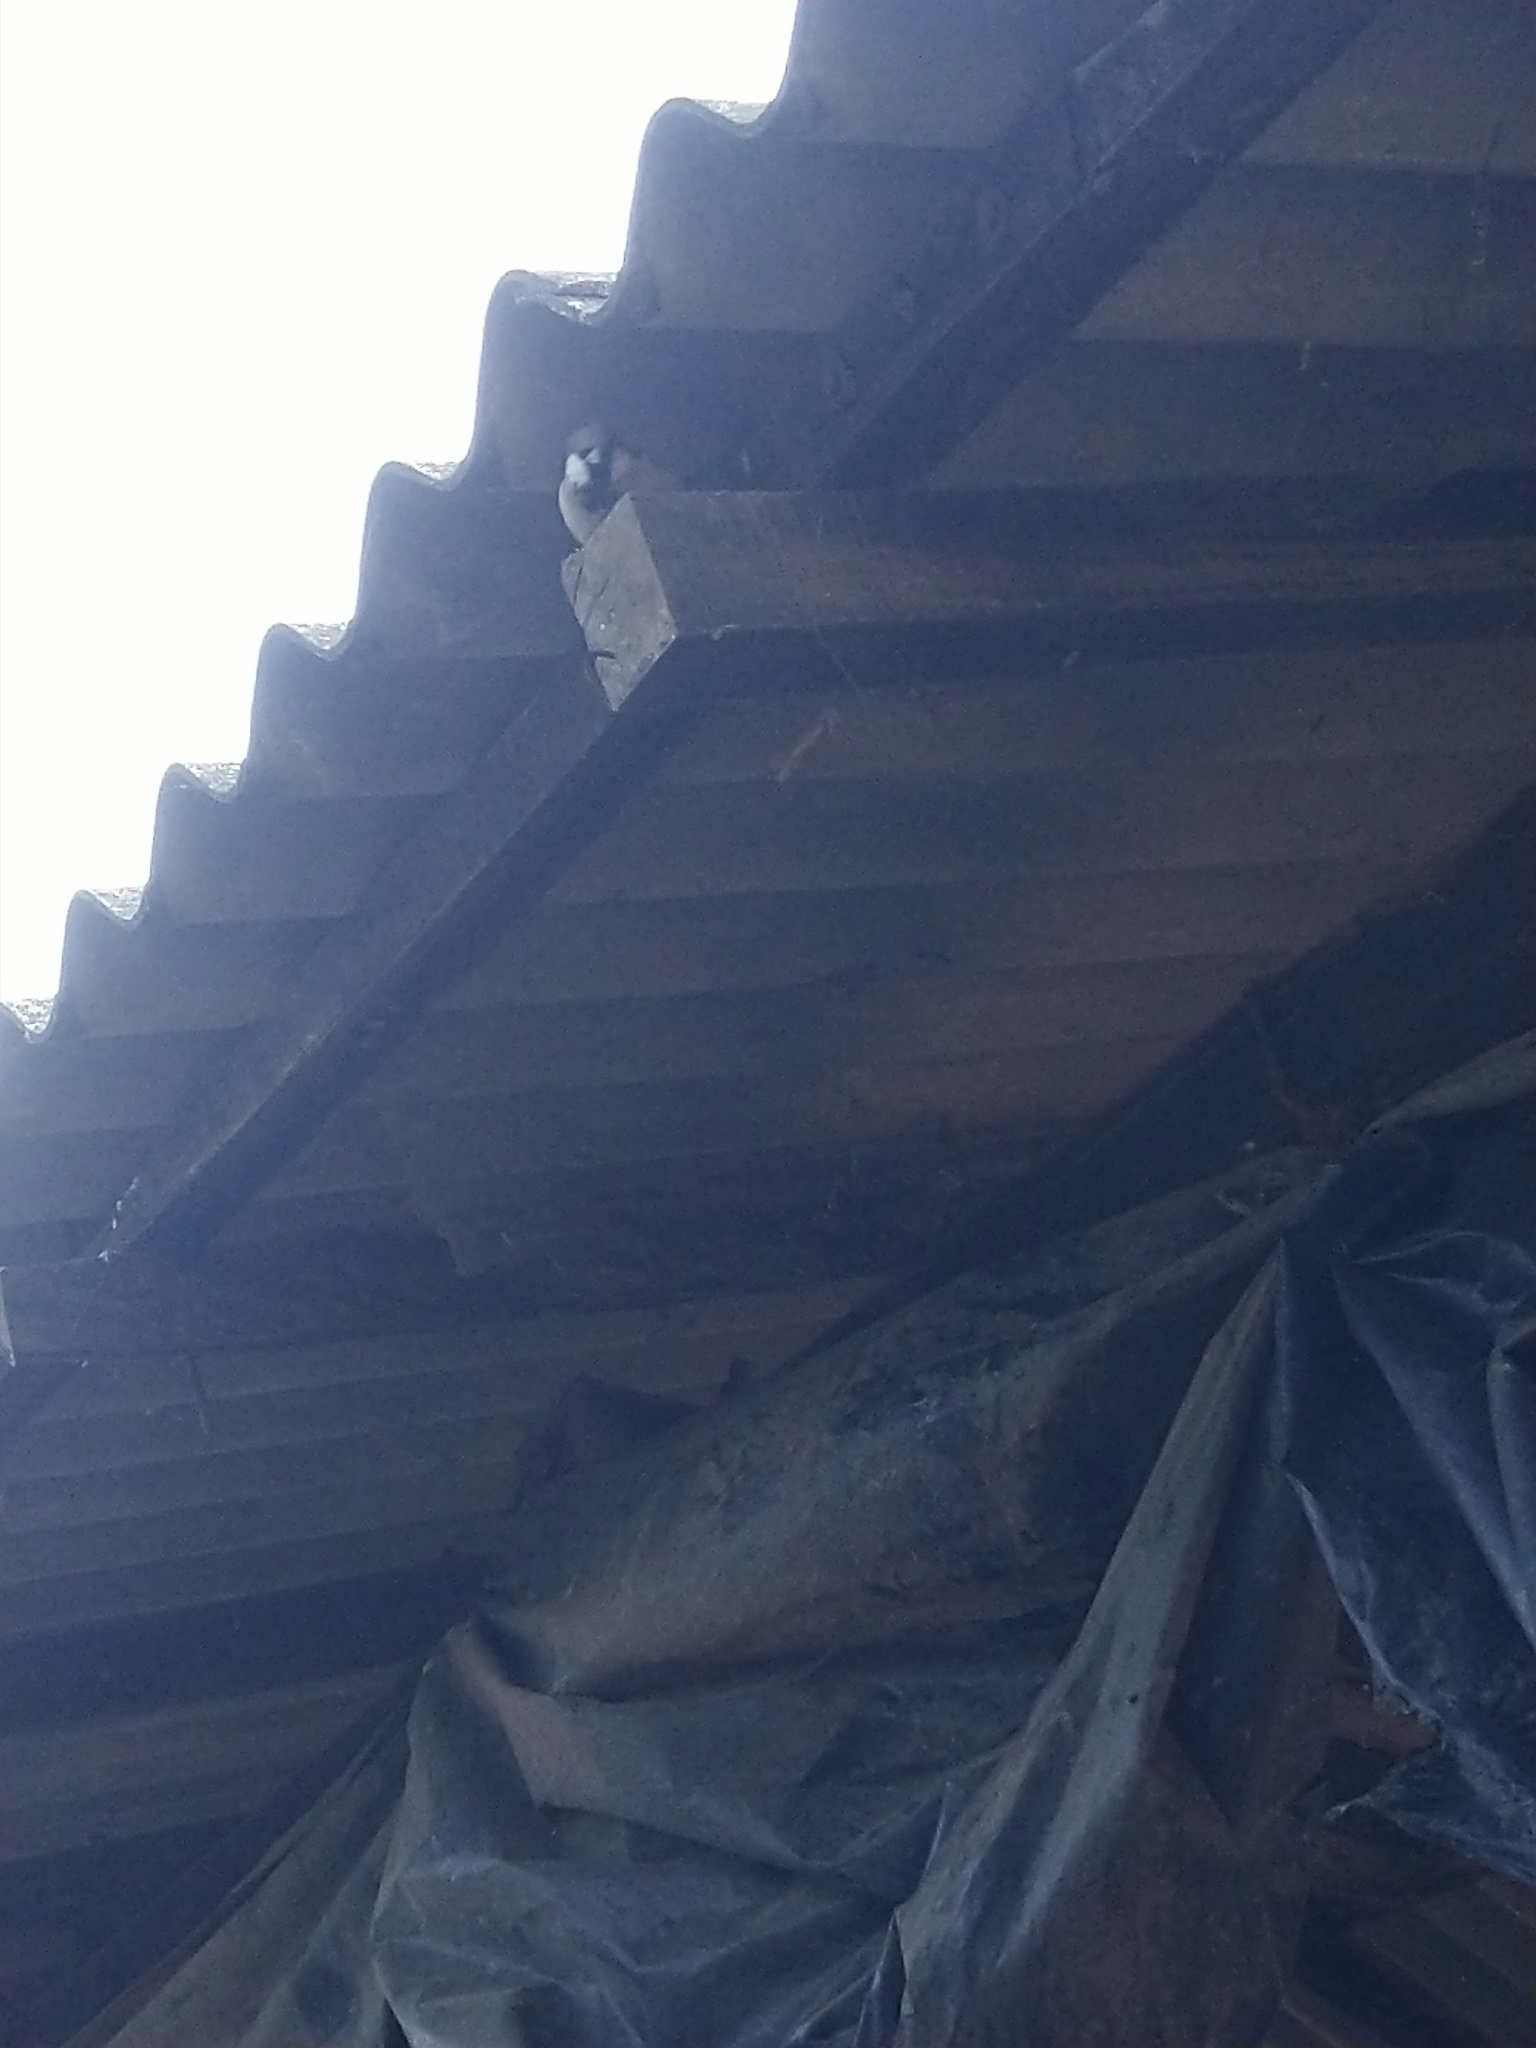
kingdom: Animalia
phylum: Chordata
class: Aves
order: Passeriformes
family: Passeridae
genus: Passer
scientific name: Passer domesticus
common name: House sparrow
